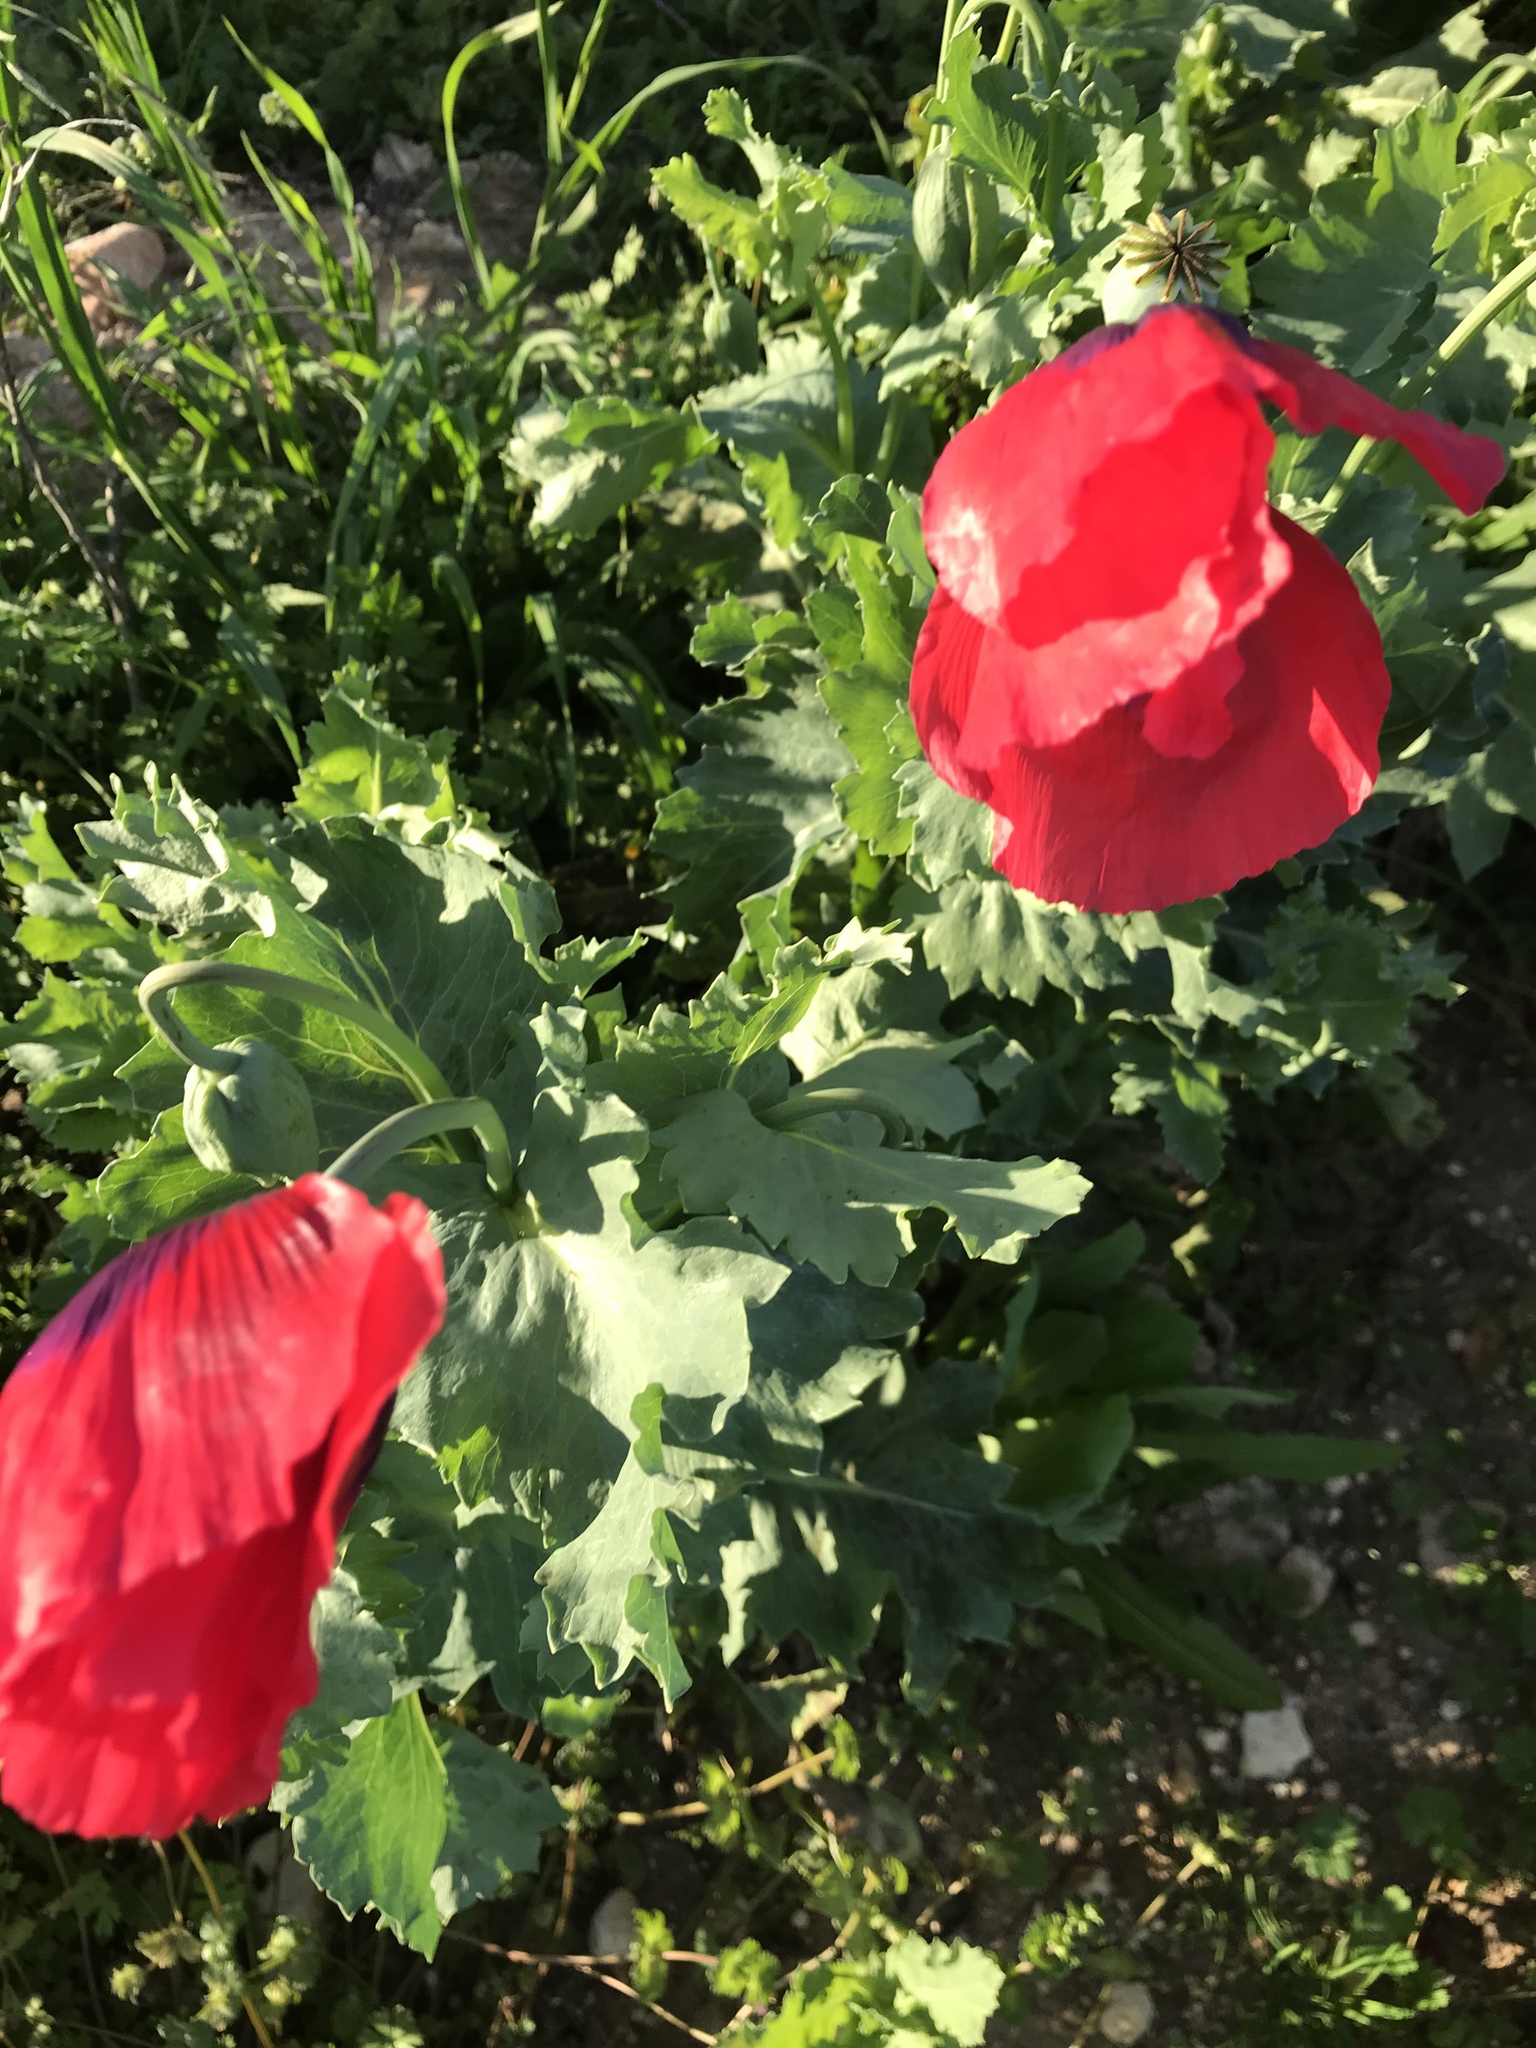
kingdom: Plantae
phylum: Tracheophyta
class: Magnoliopsida
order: Ranunculales
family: Papaveraceae
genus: Papaver
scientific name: Papaver somniferum
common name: Opium poppy
